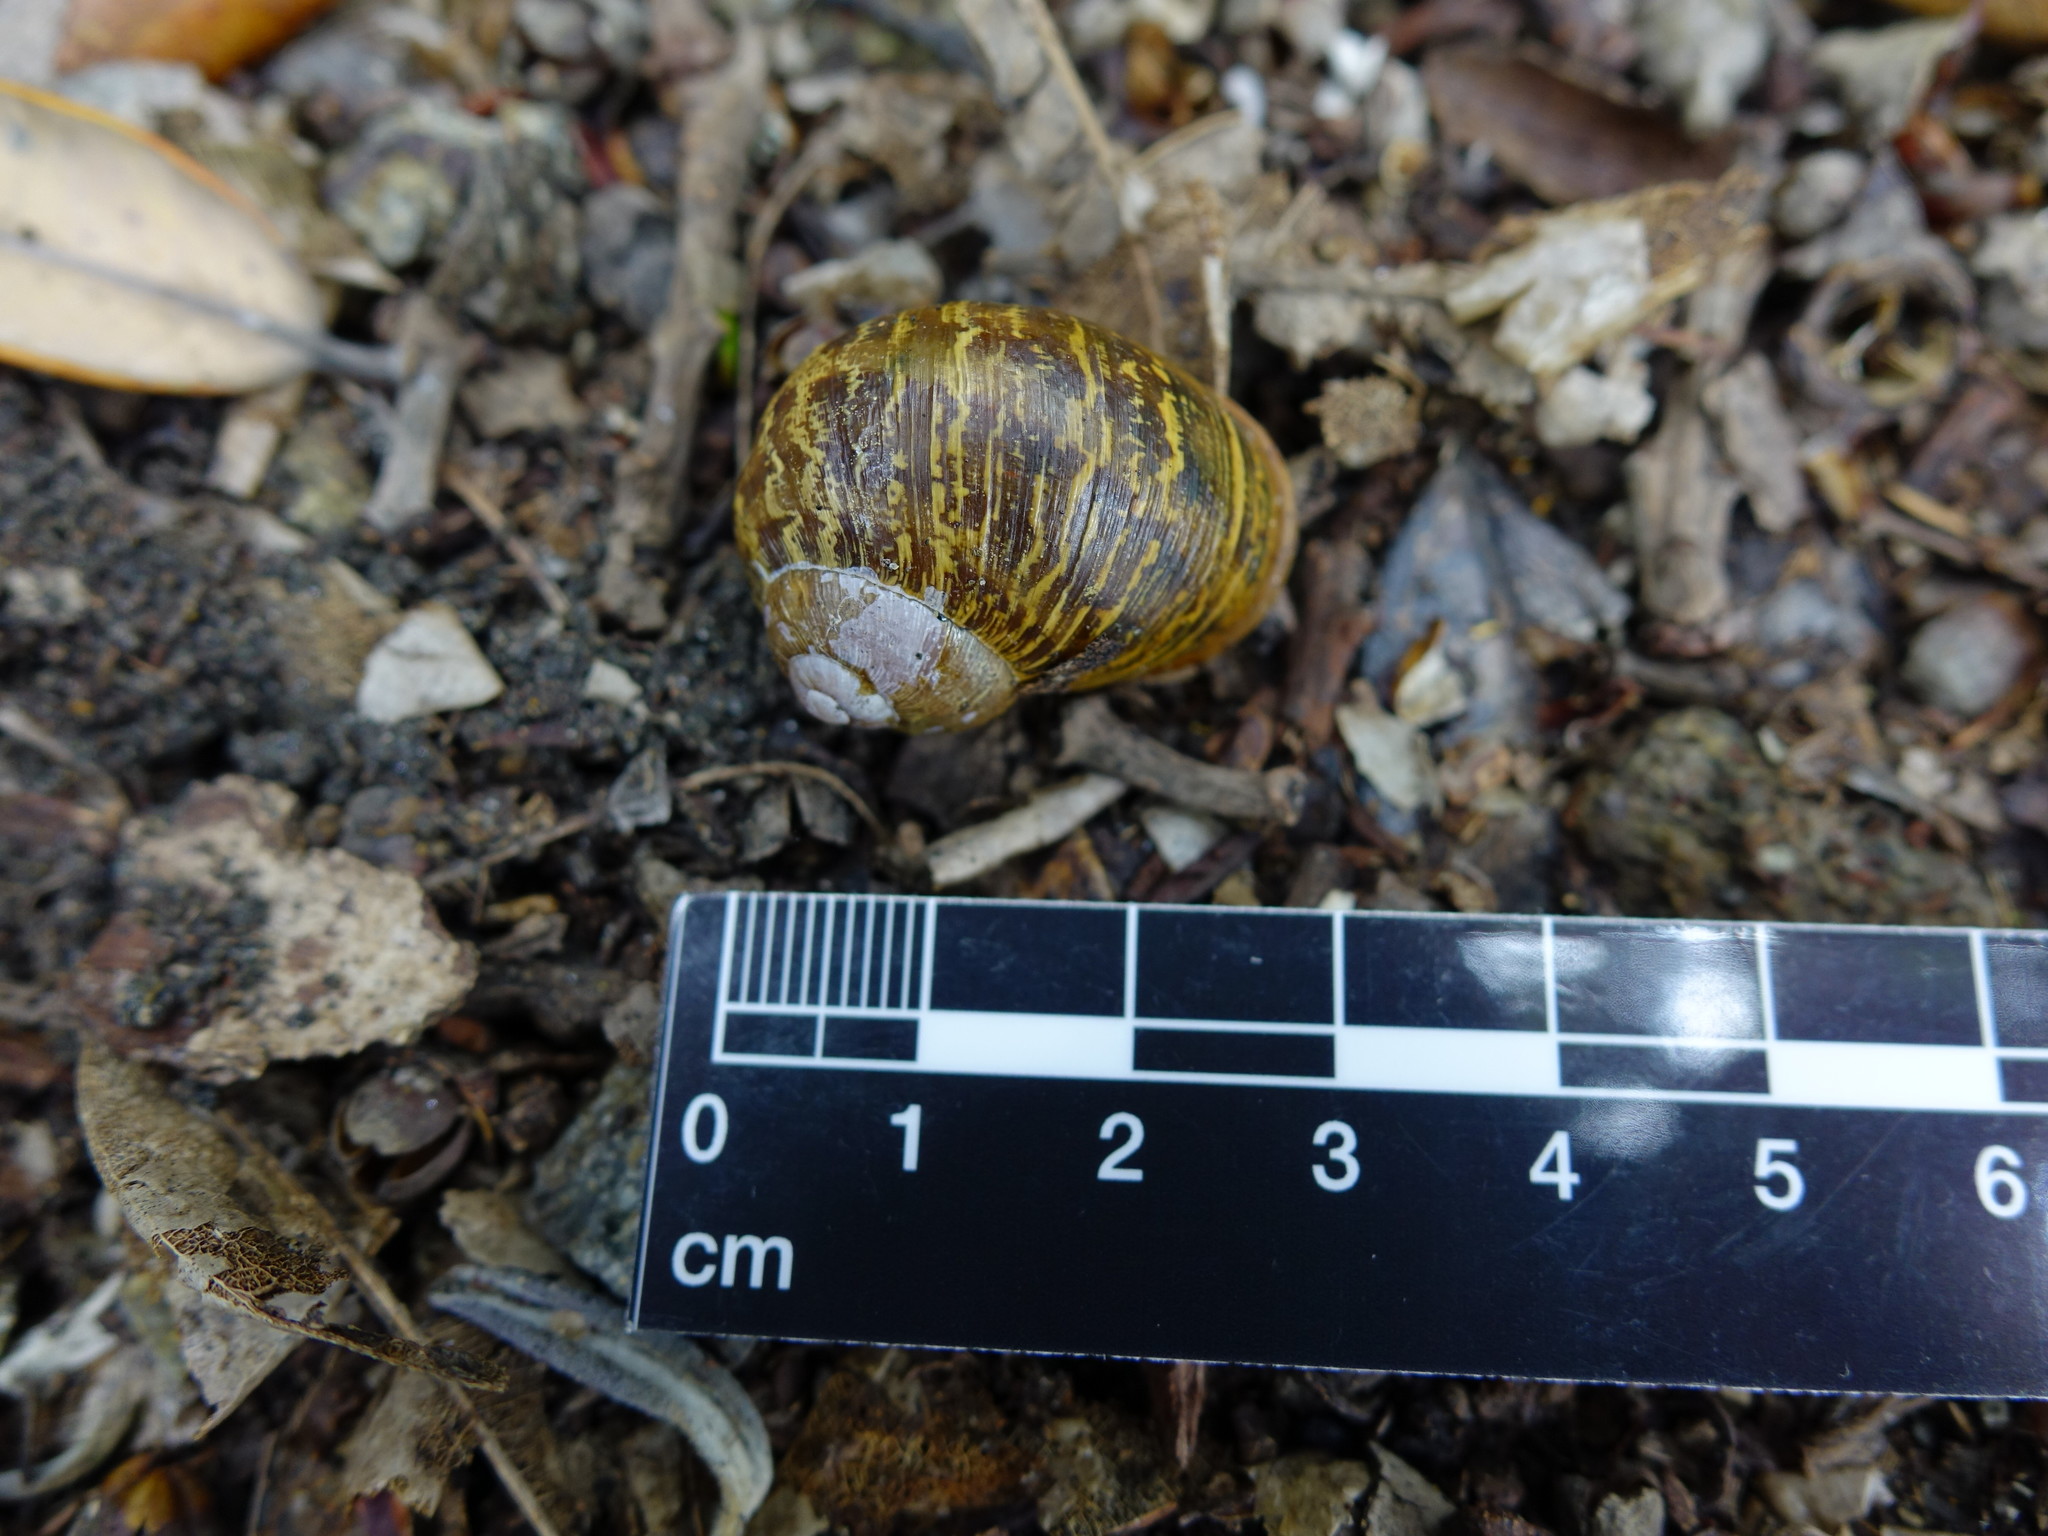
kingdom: Animalia
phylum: Mollusca
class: Gastropoda
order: Stylommatophora
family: Helicidae
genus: Cornu
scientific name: Cornu aspersum
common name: Brown garden snail
